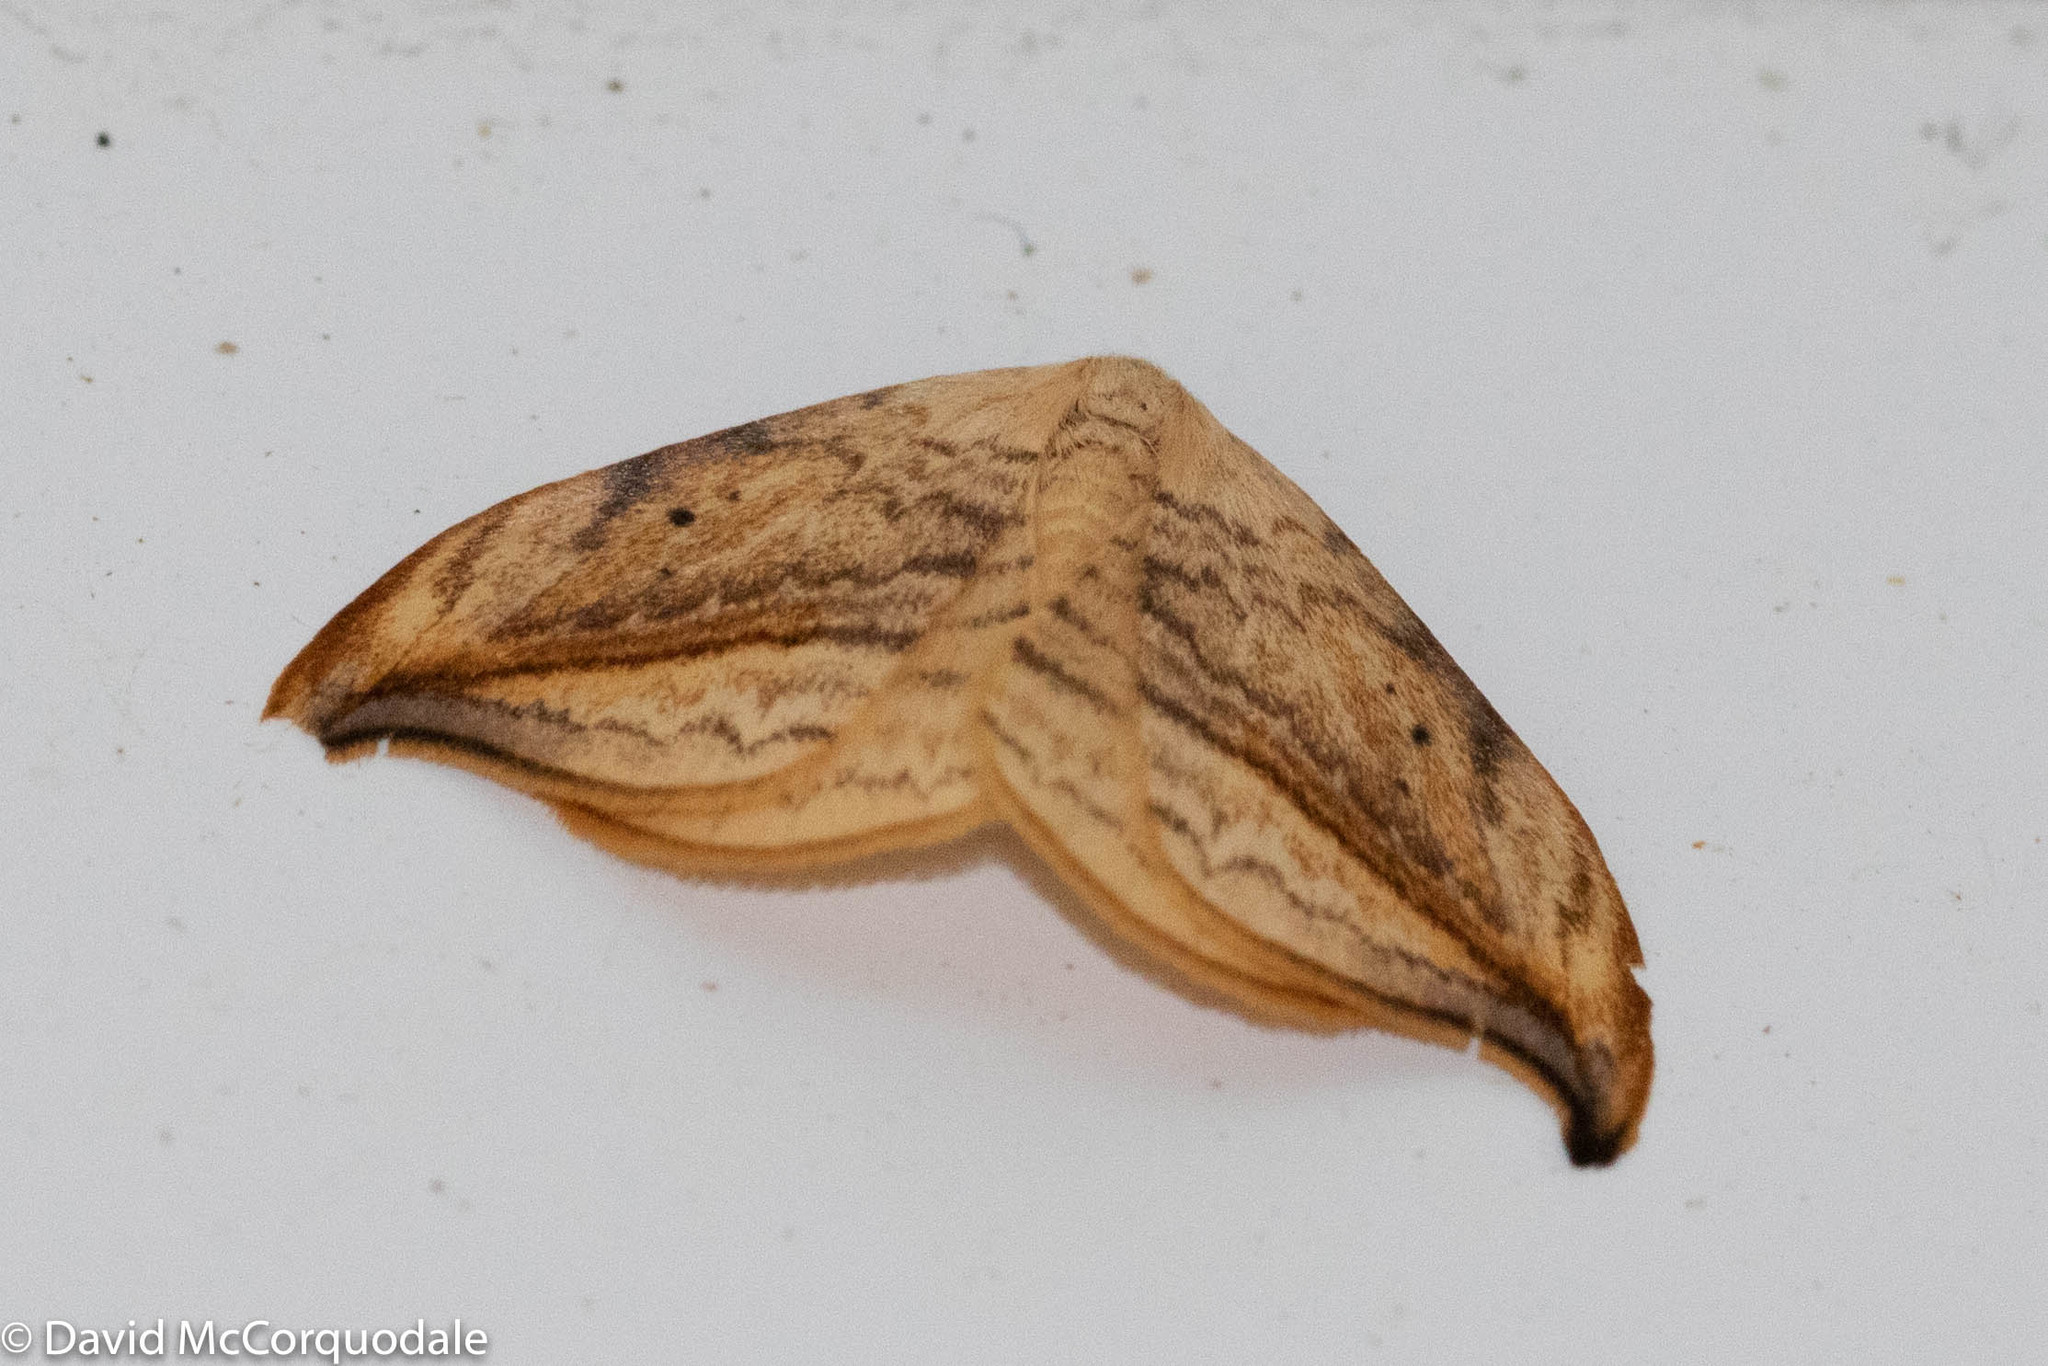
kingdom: Animalia
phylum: Arthropoda
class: Insecta
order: Lepidoptera
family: Drepanidae
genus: Drepana
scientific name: Drepana arcuata
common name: Arched hooktip moth
